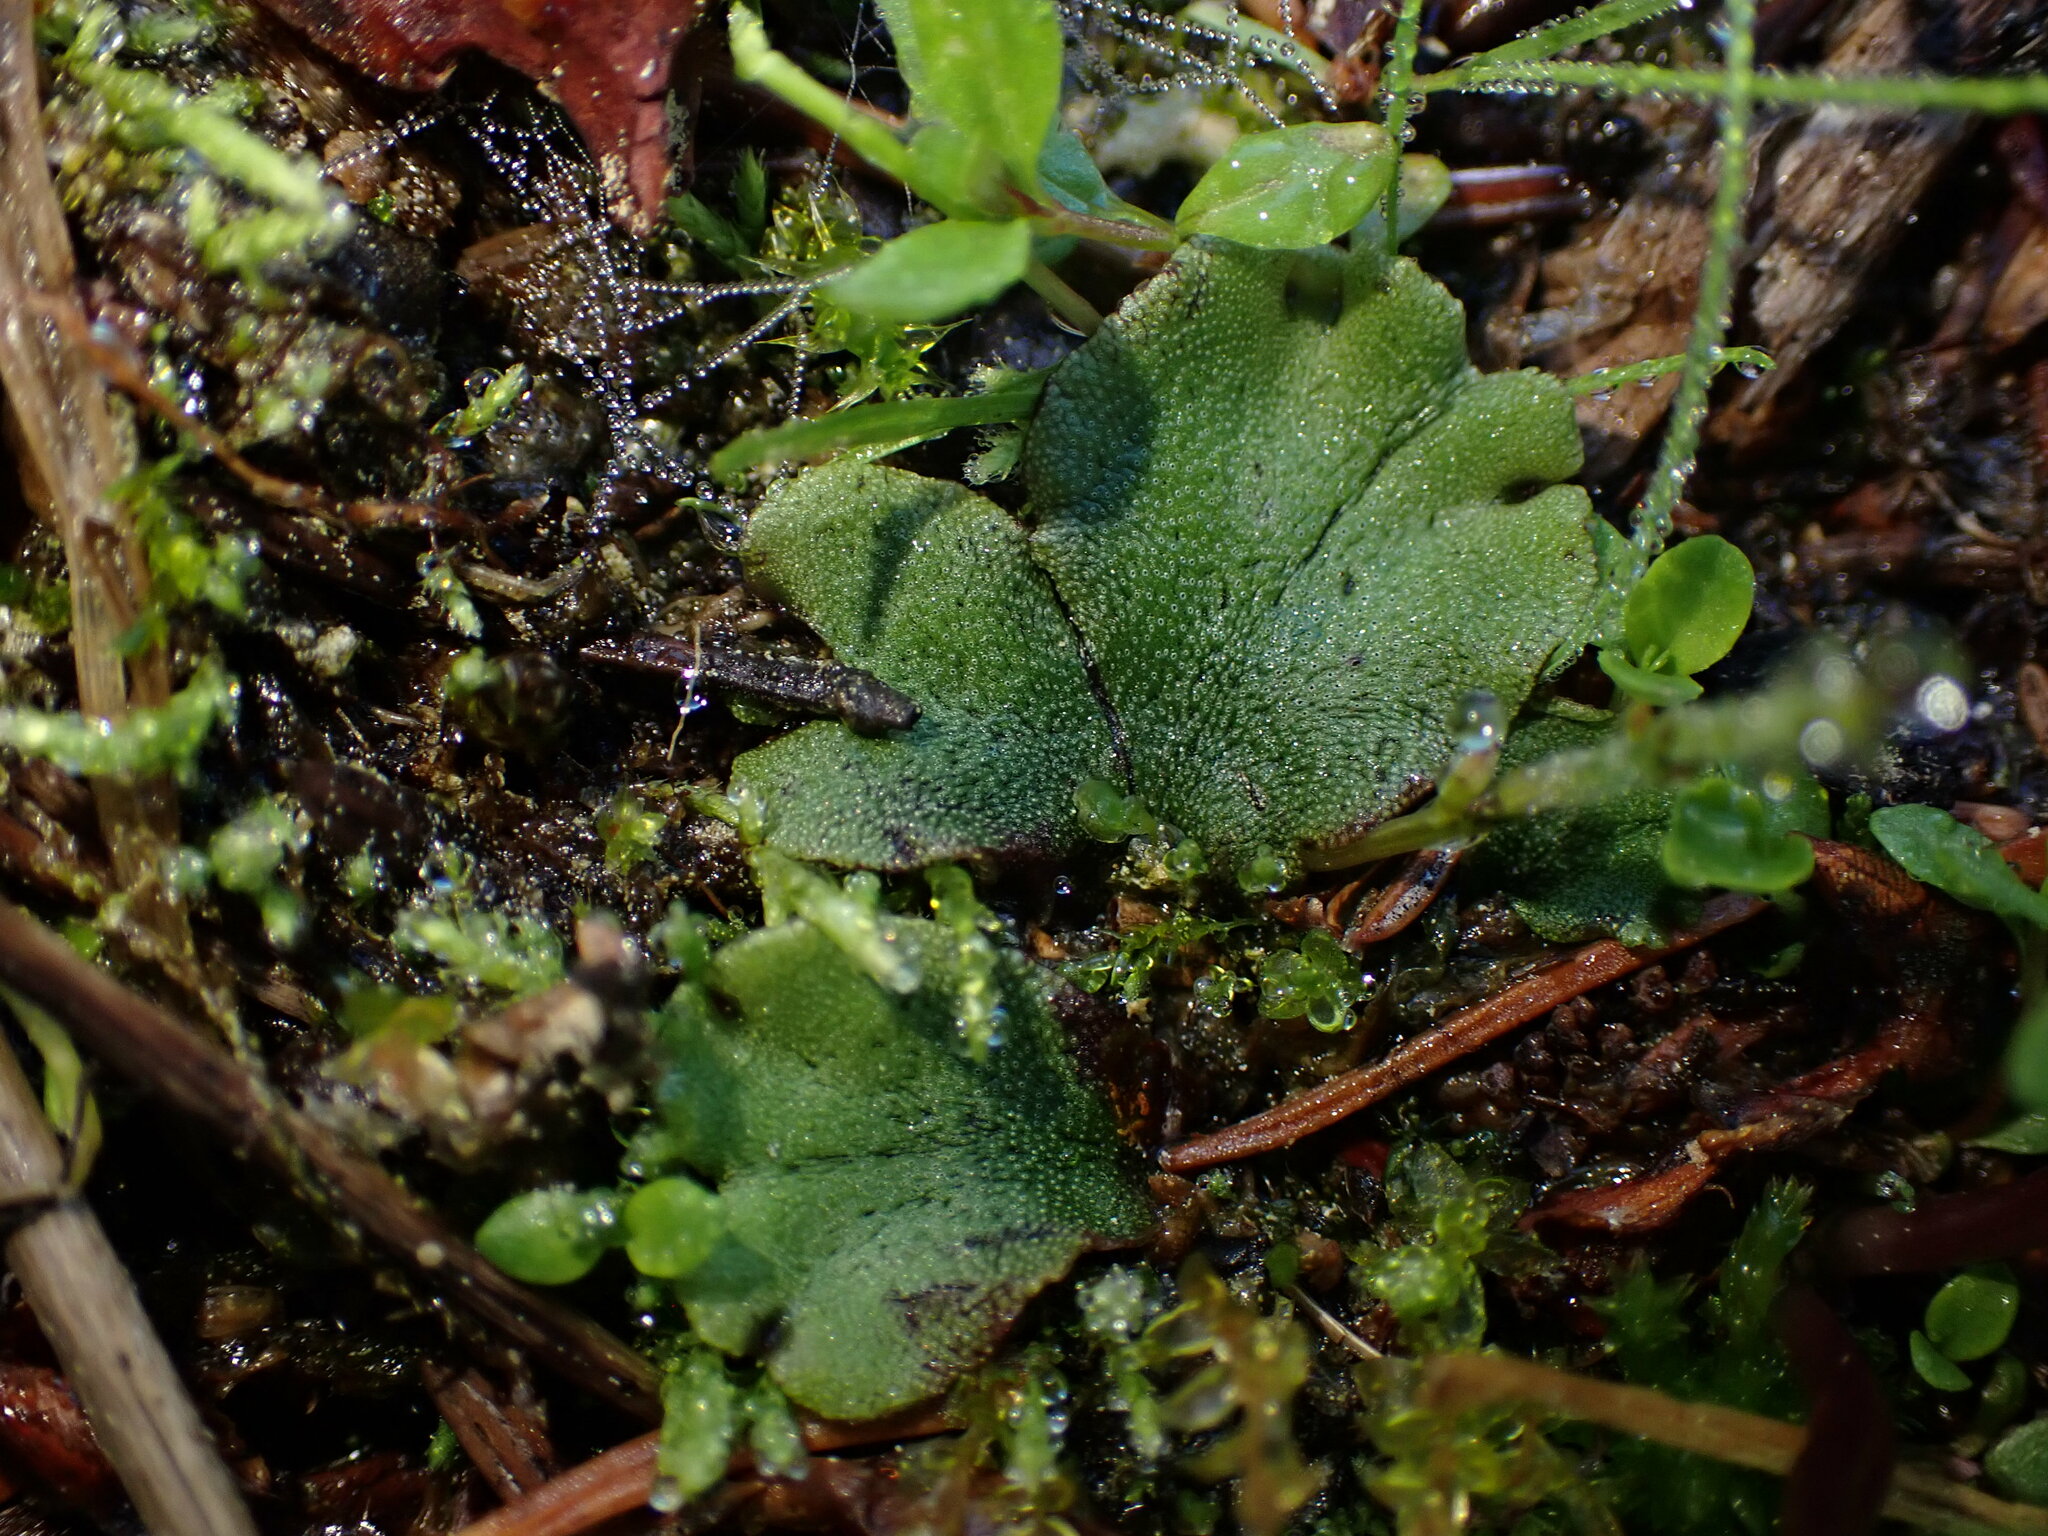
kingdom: Plantae
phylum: Marchantiophyta
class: Marchantiopsida
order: Marchantiales
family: Marchantiaceae
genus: Marchantia
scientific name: Marchantia polymorpha
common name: Common liverwort
